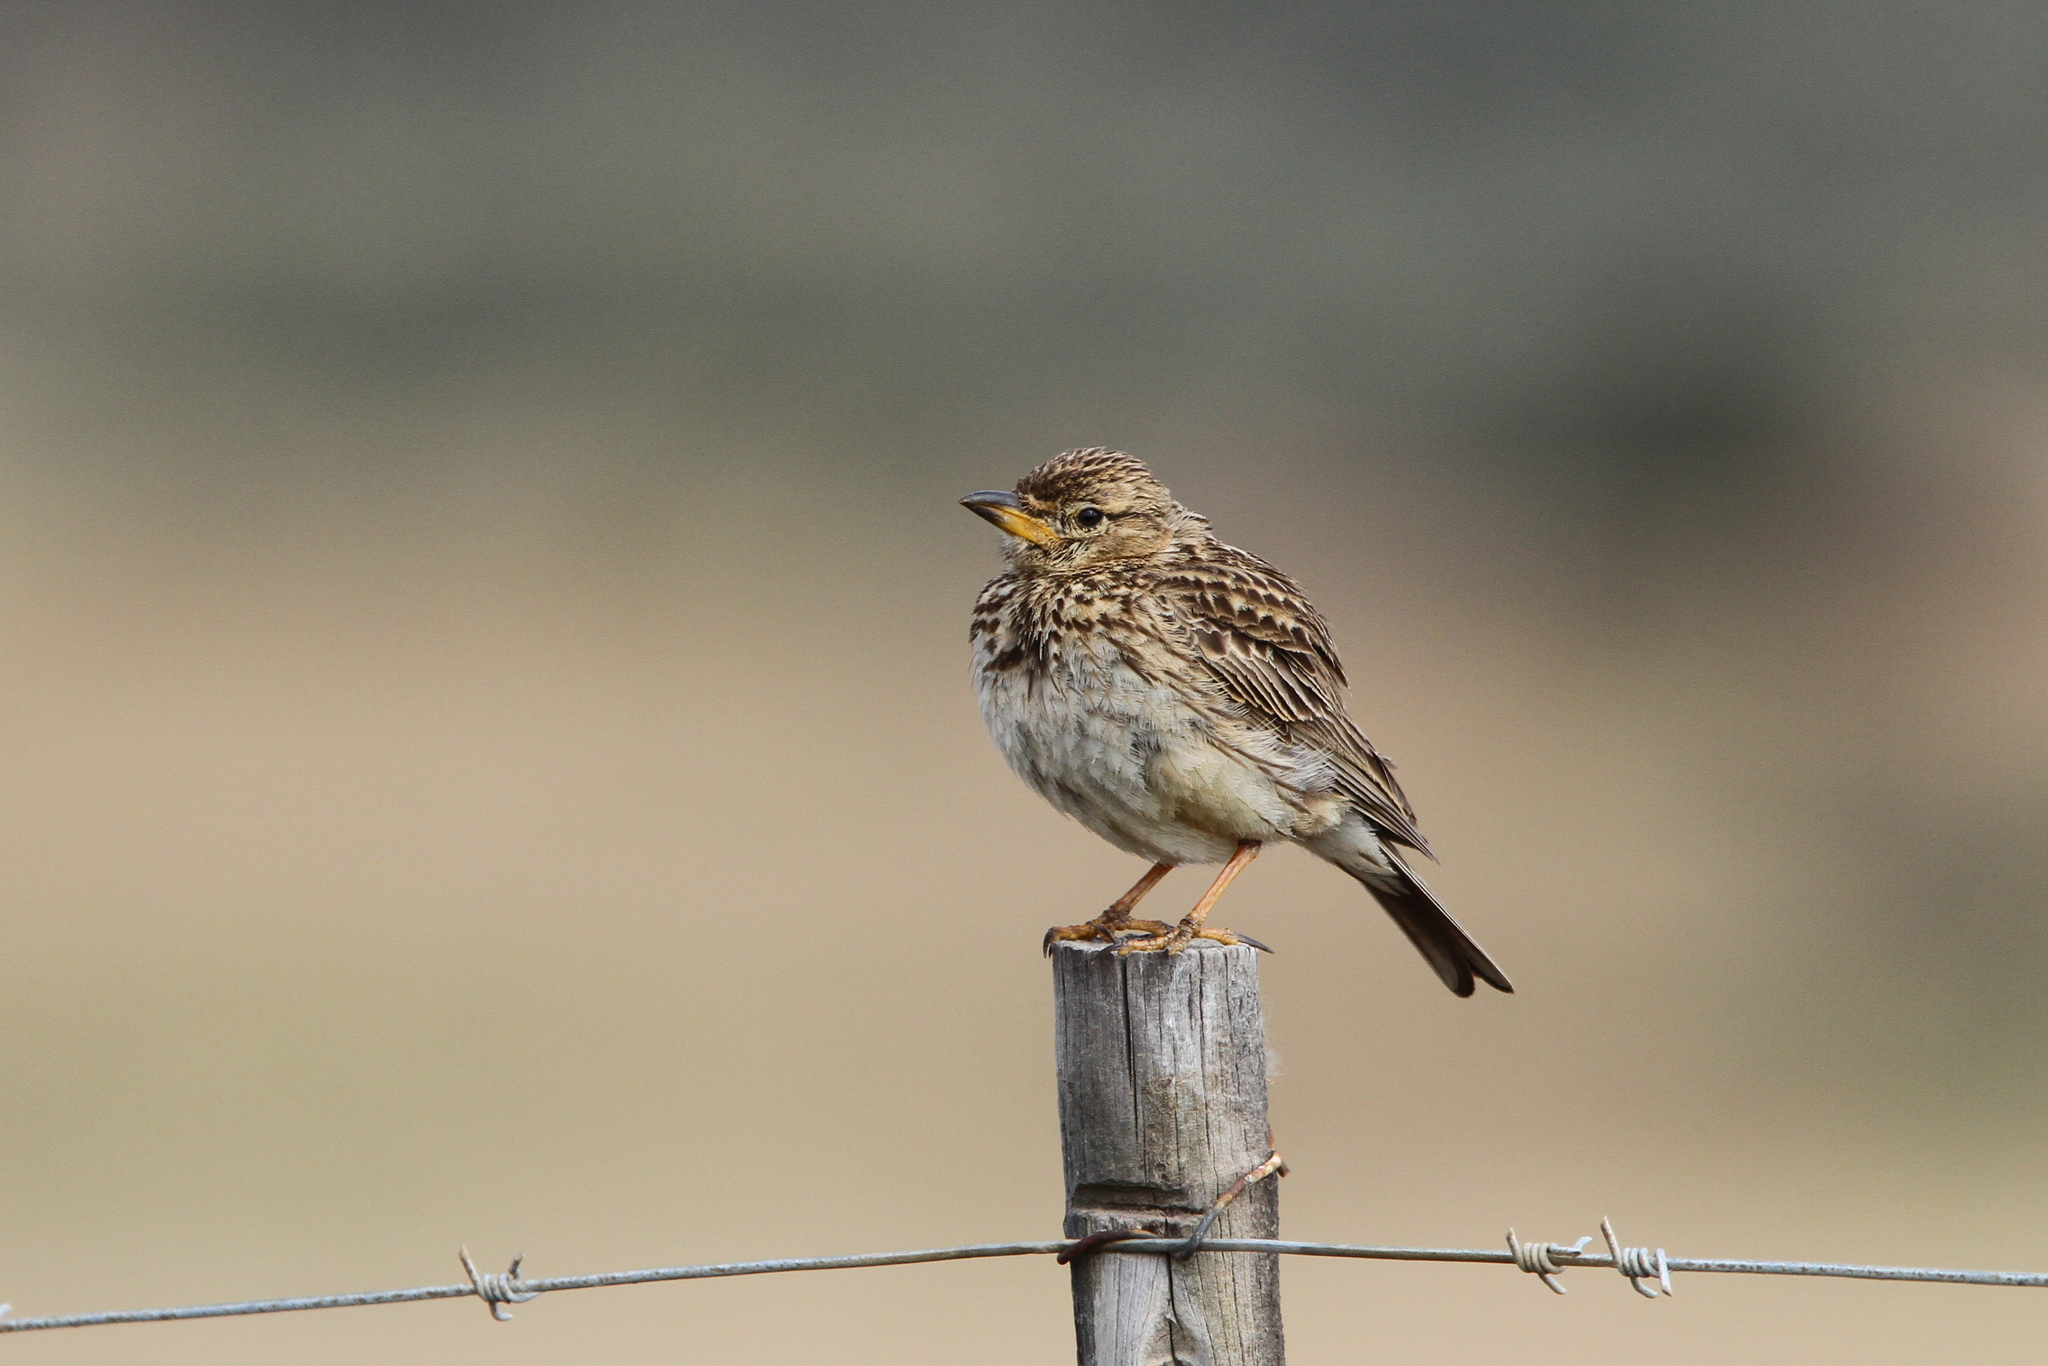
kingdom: Animalia
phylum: Chordata
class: Aves
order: Passeriformes
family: Alaudidae
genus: Galerida
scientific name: Galerida magnirostris
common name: Large-billed lark
